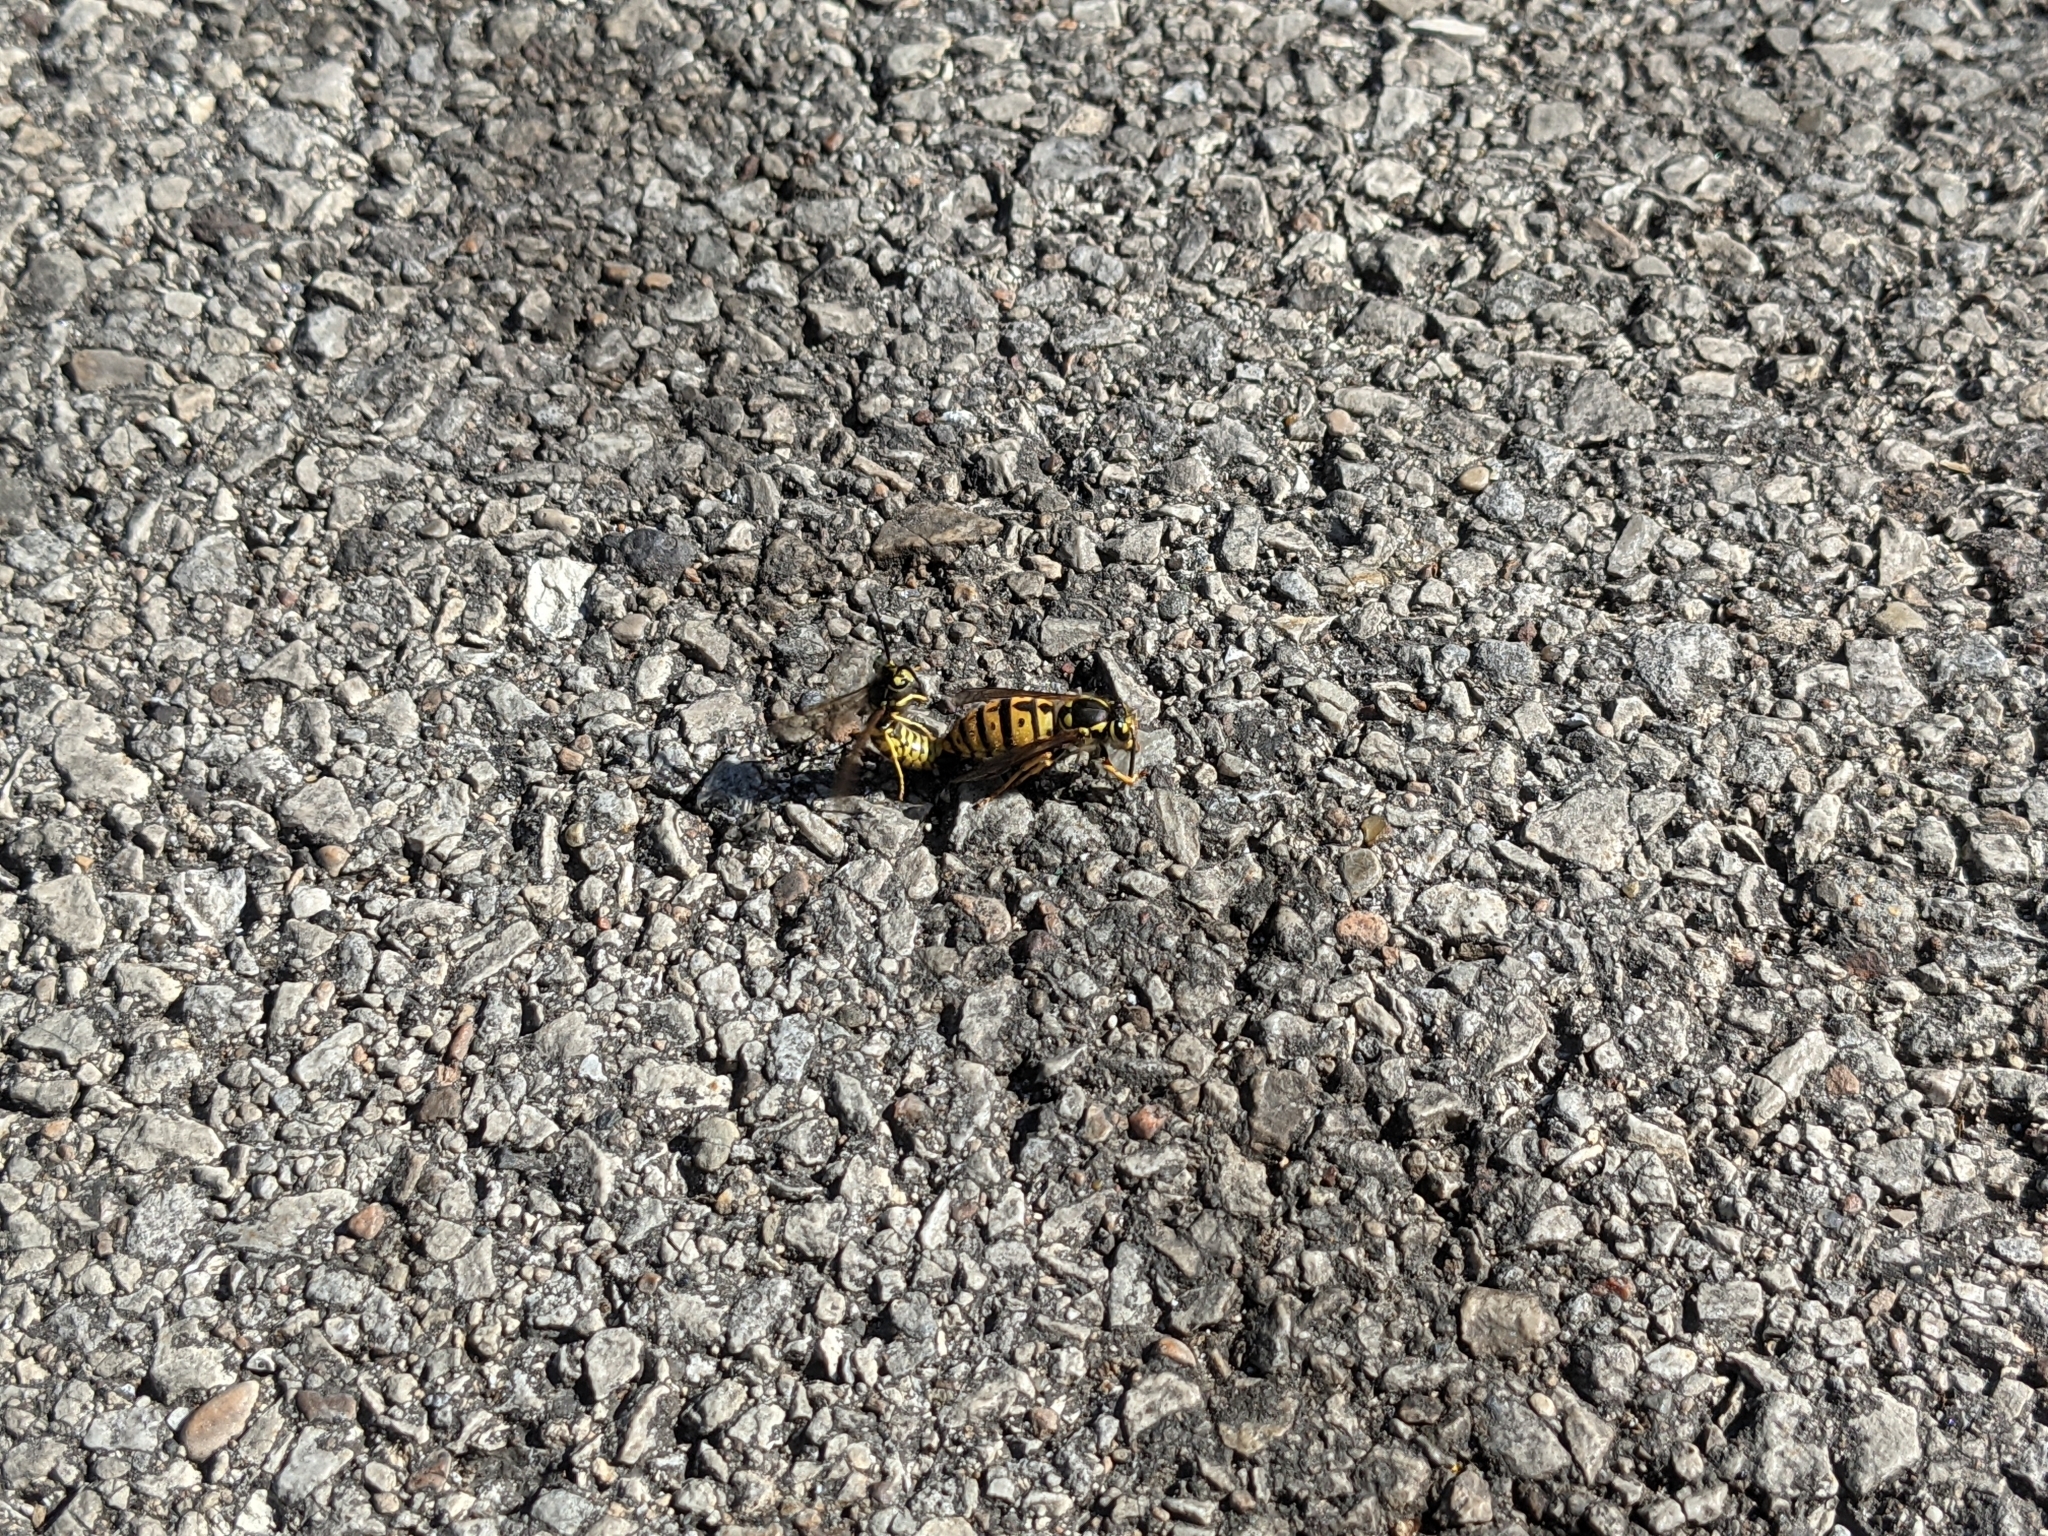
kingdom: Animalia
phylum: Arthropoda
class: Insecta
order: Hymenoptera
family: Vespidae
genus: Vespula
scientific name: Vespula germanica
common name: German wasp
